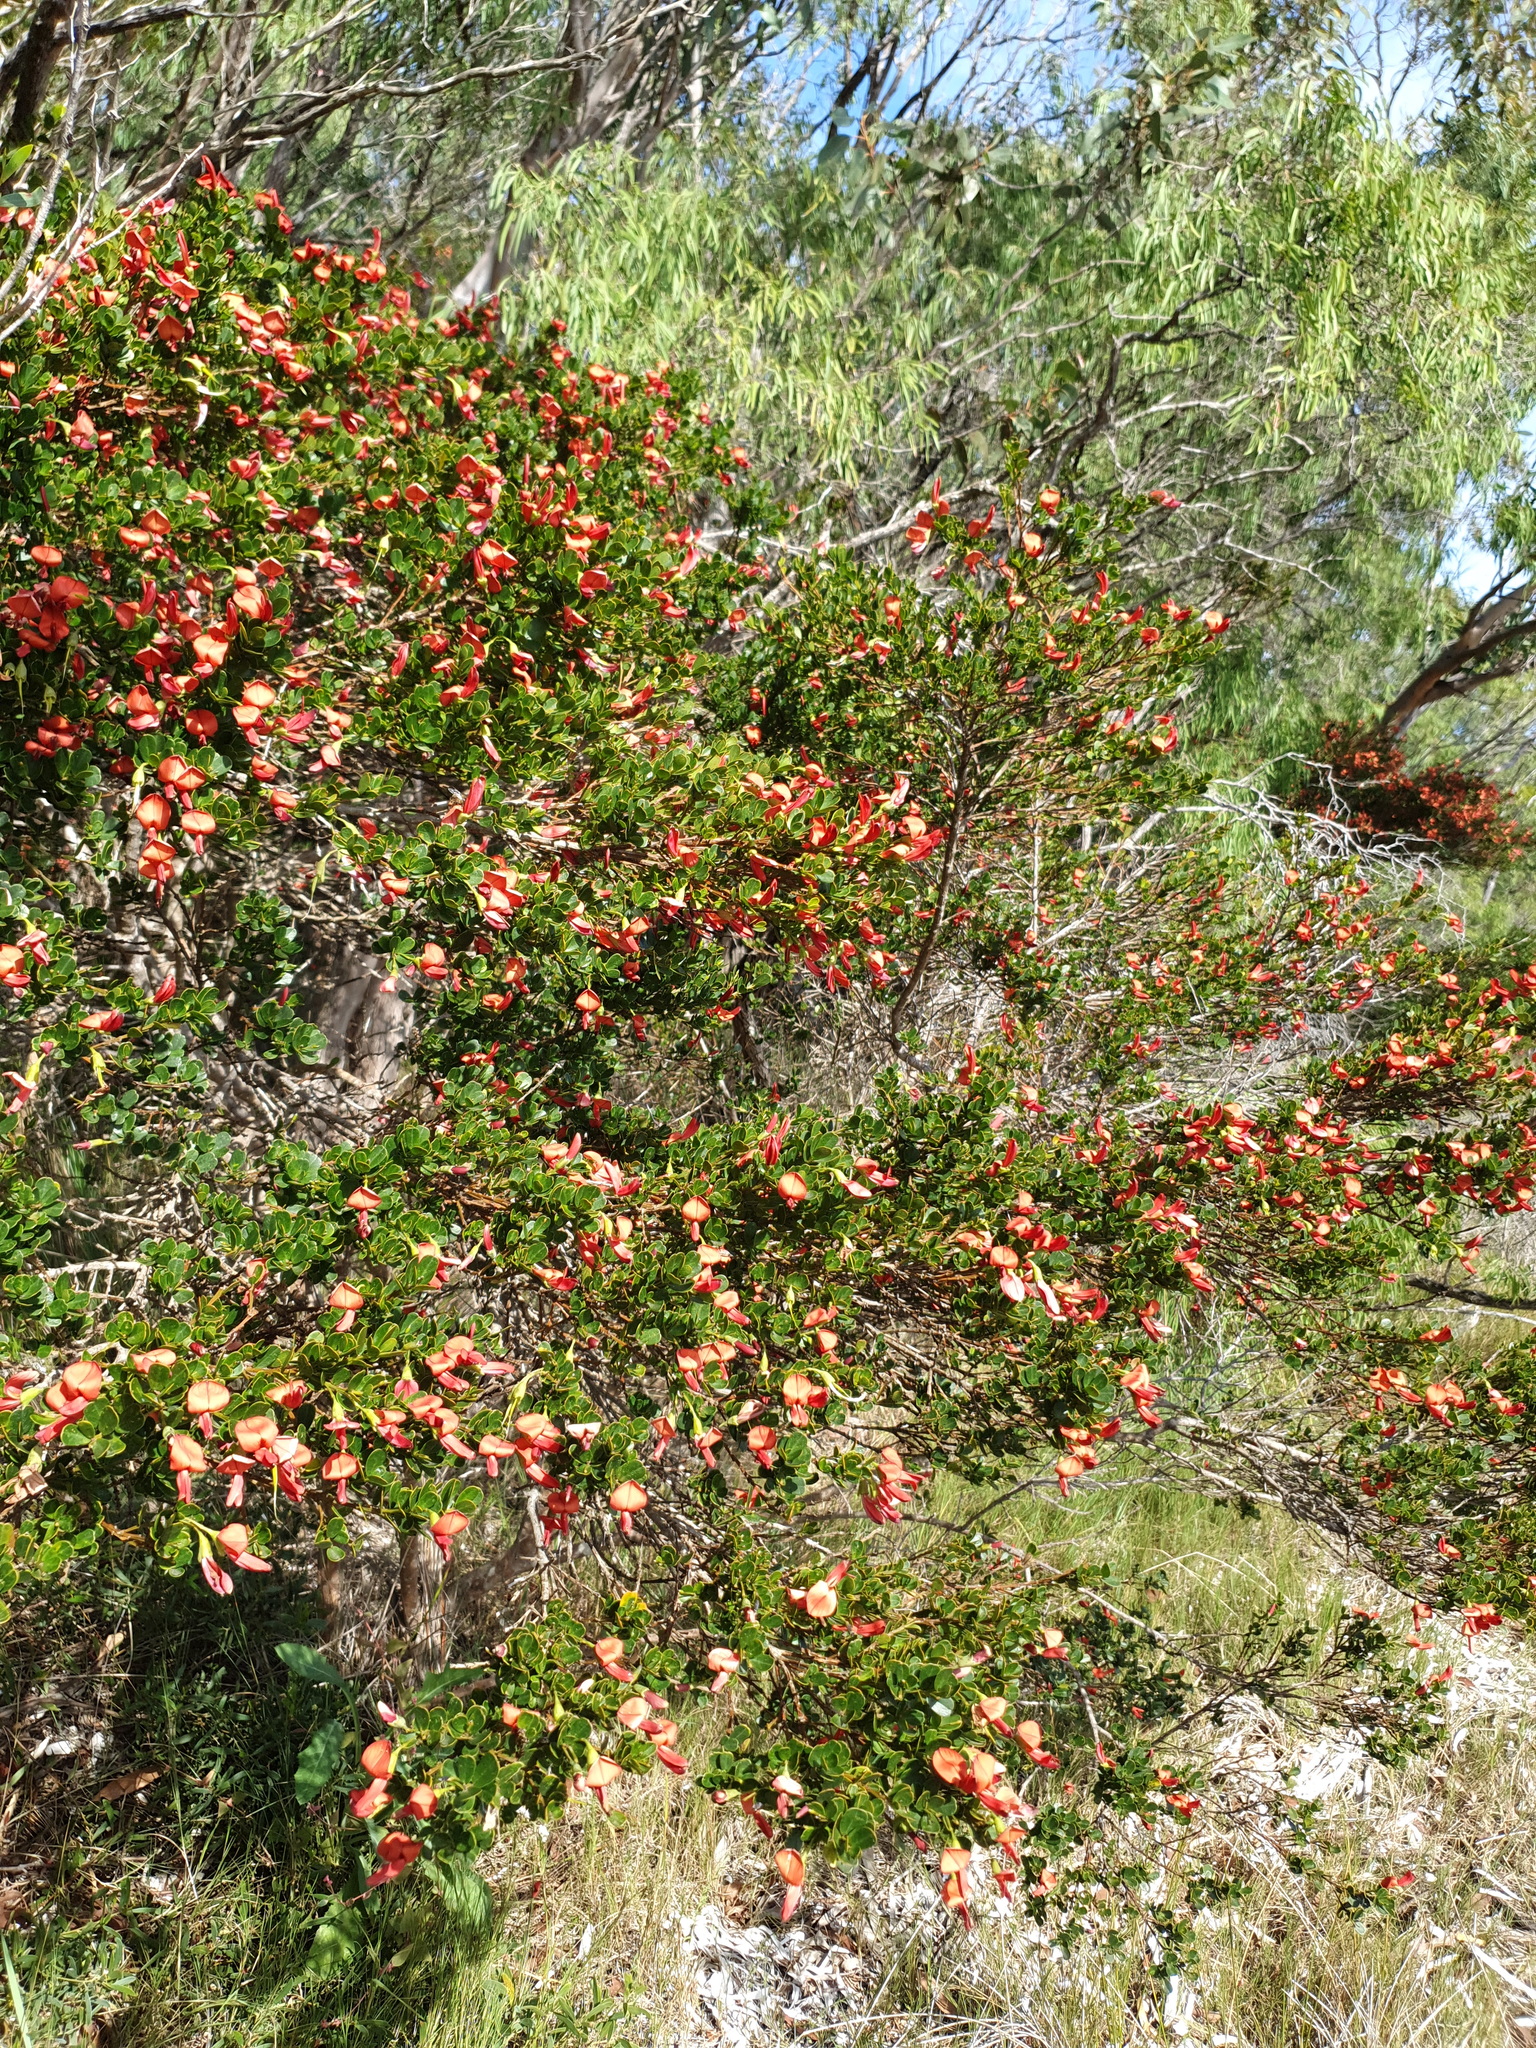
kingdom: Plantae
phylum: Tracheophyta
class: Magnoliopsida
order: Fabales
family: Fabaceae
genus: Templetonia
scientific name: Templetonia retusa
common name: Cockies'-tongue
